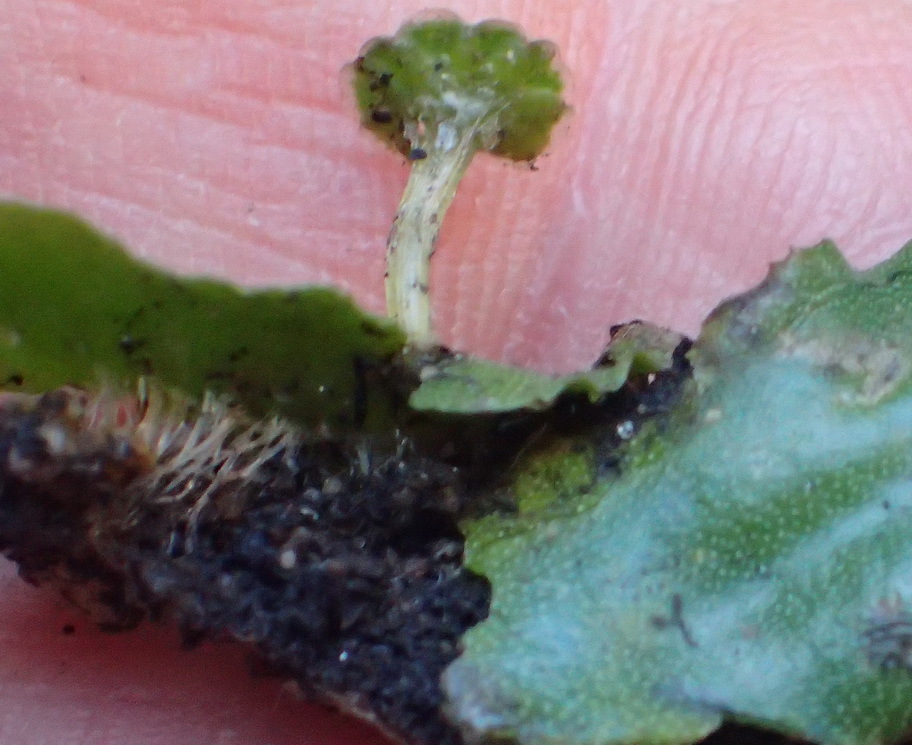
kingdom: Plantae
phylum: Marchantiophyta
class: Marchantiopsida
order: Marchantiales
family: Marchantiaceae
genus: Marchantia
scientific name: Marchantia berteroana
